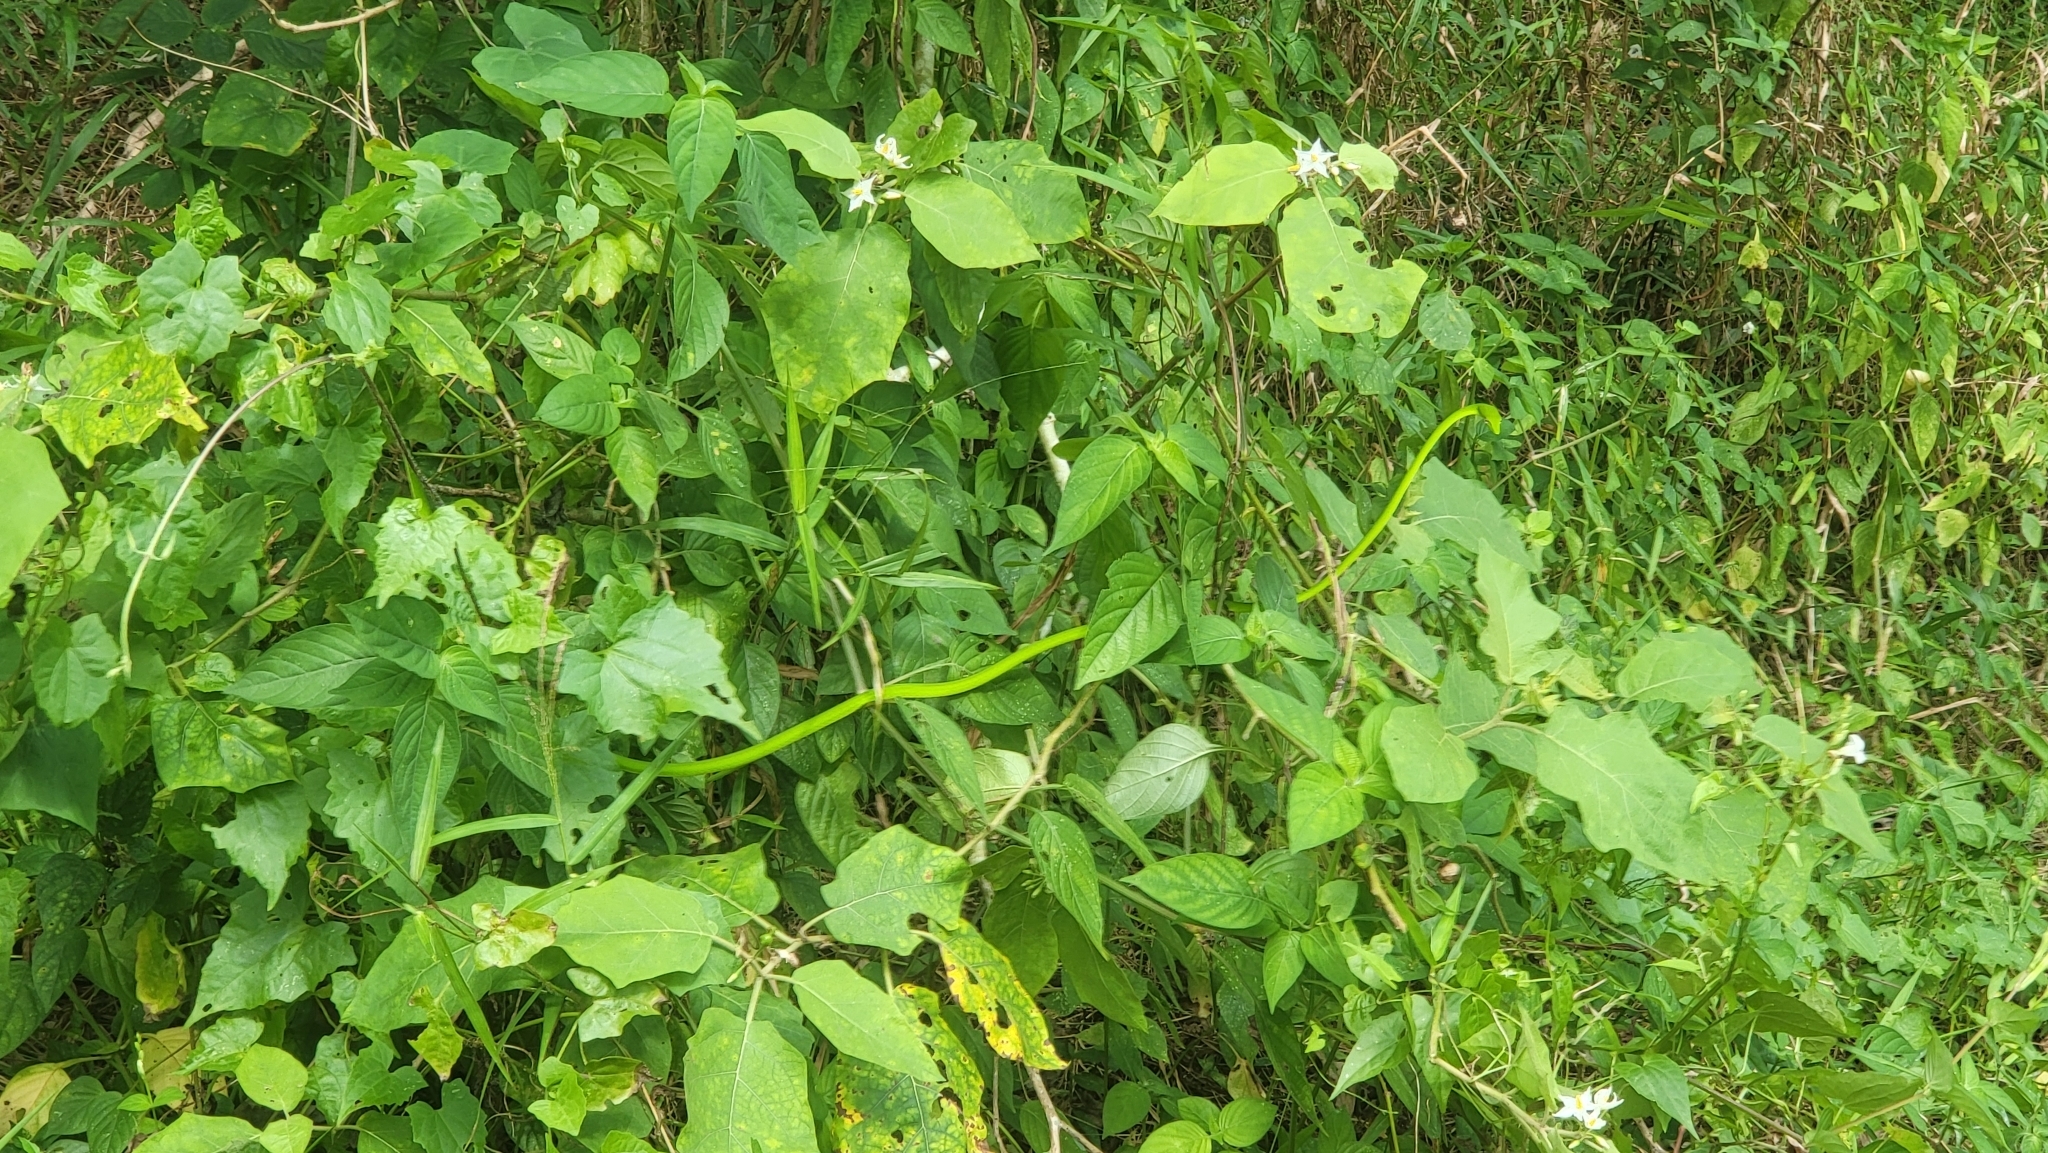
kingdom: Animalia
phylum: Chordata
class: Squamata
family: Colubridae
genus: Ahaetulla
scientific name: Ahaetulla prasina
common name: Oriental whip snake
